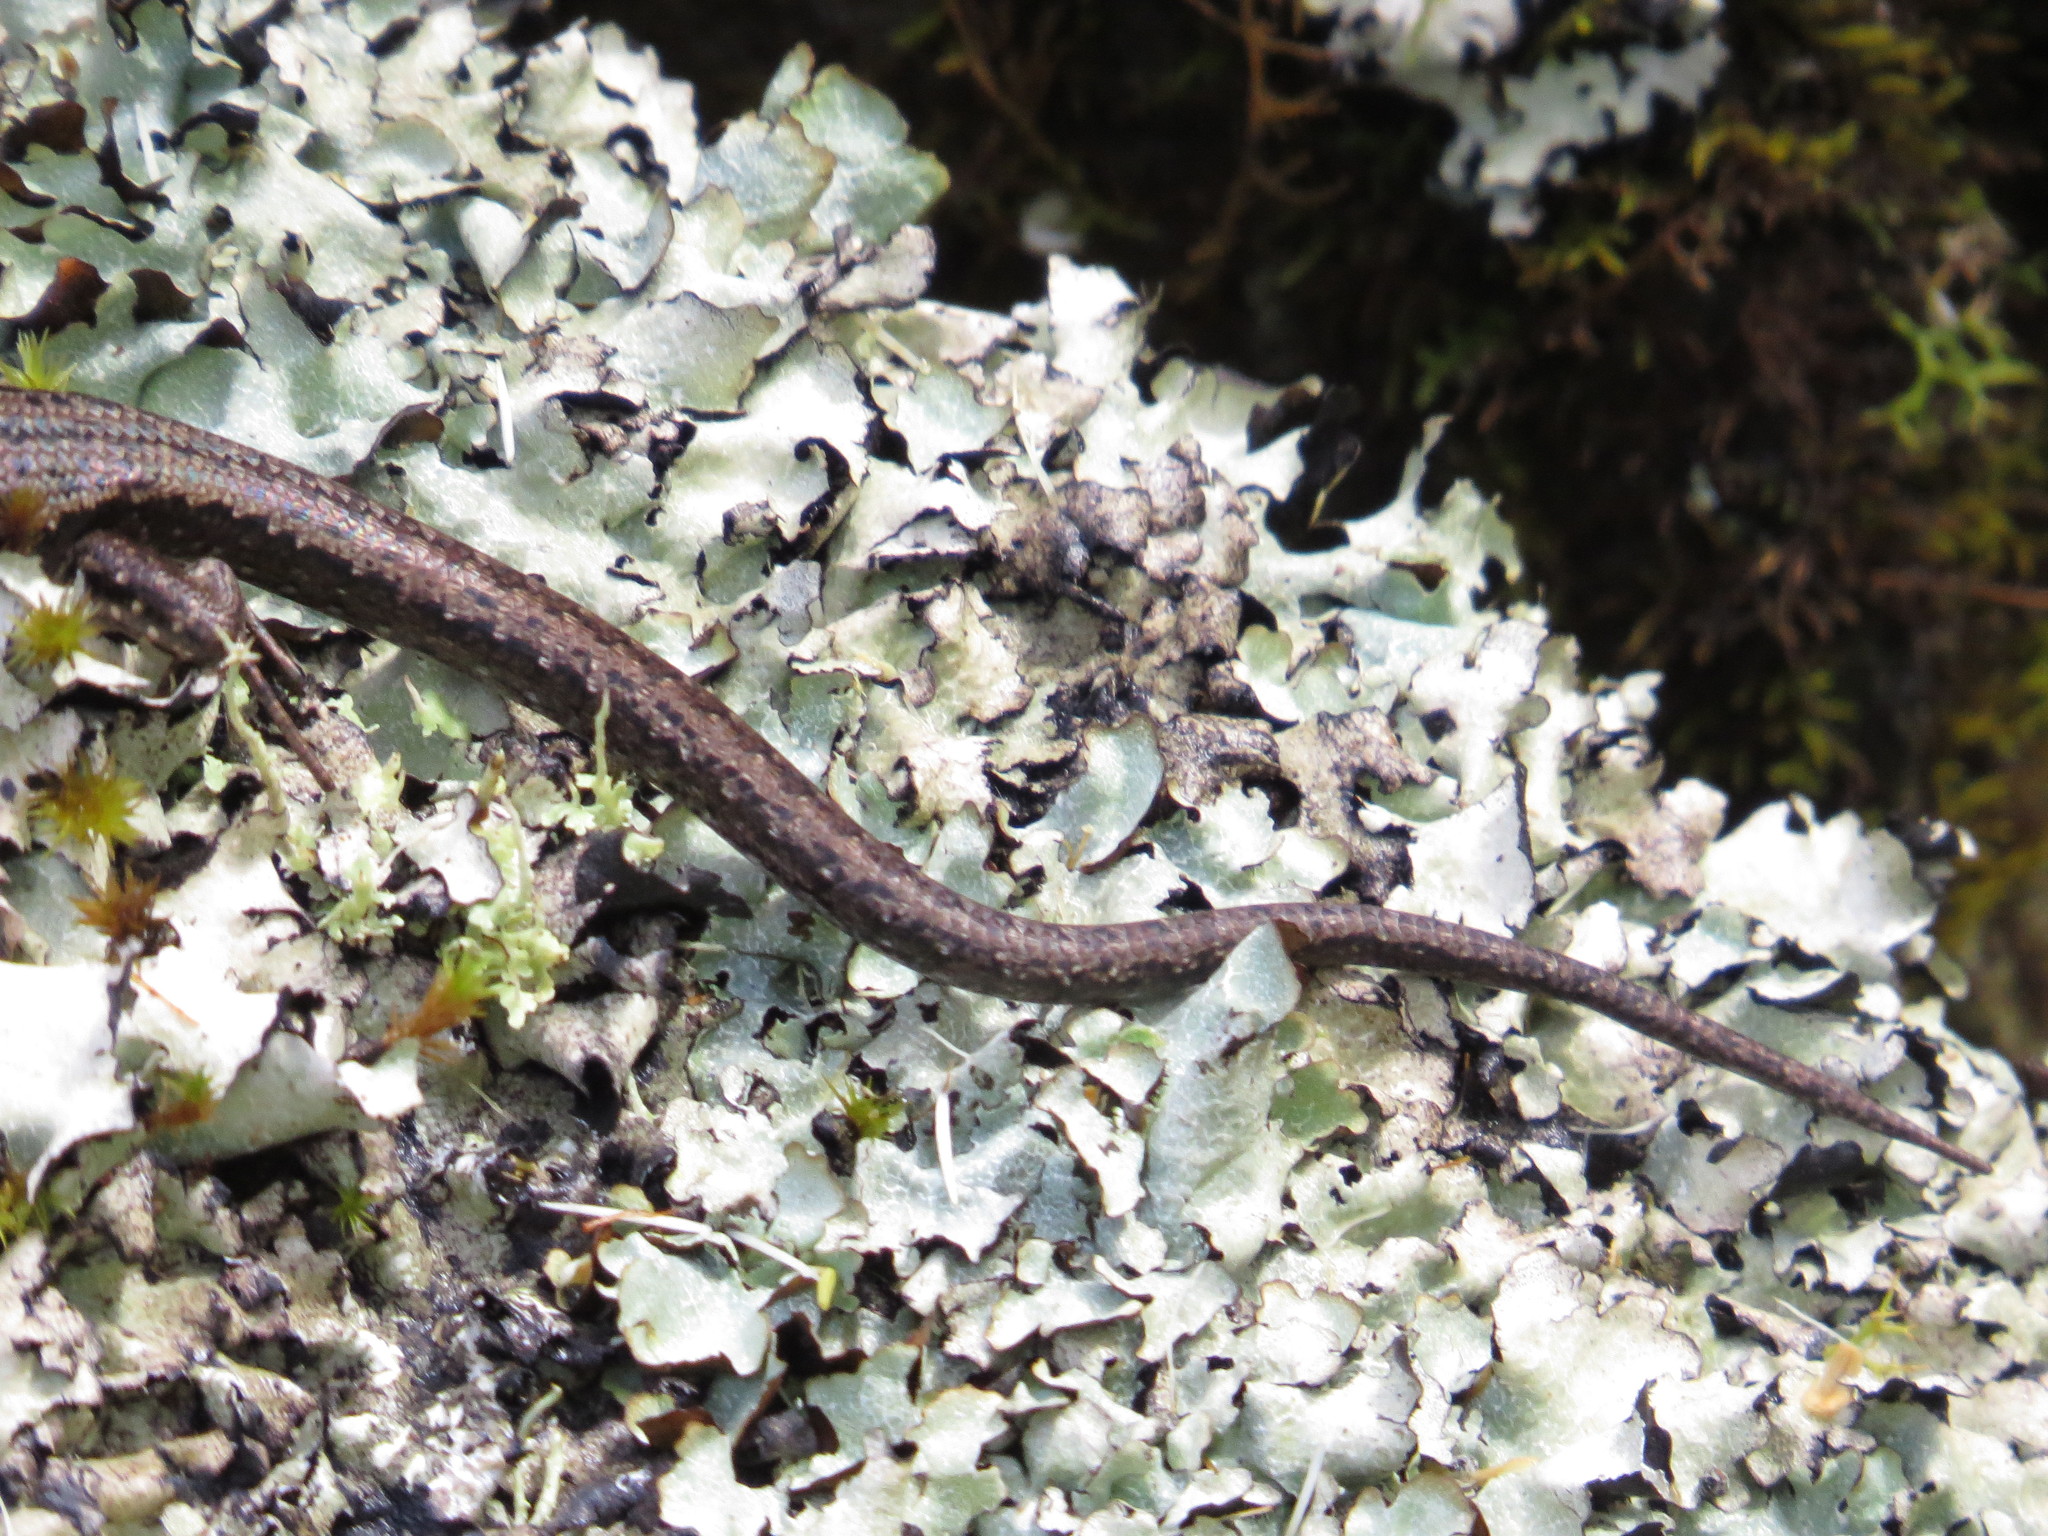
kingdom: Animalia
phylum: Chordata
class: Squamata
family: Scincidae
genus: Carinascincus
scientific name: Carinascincus pretiosus
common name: Agile cool-skink
